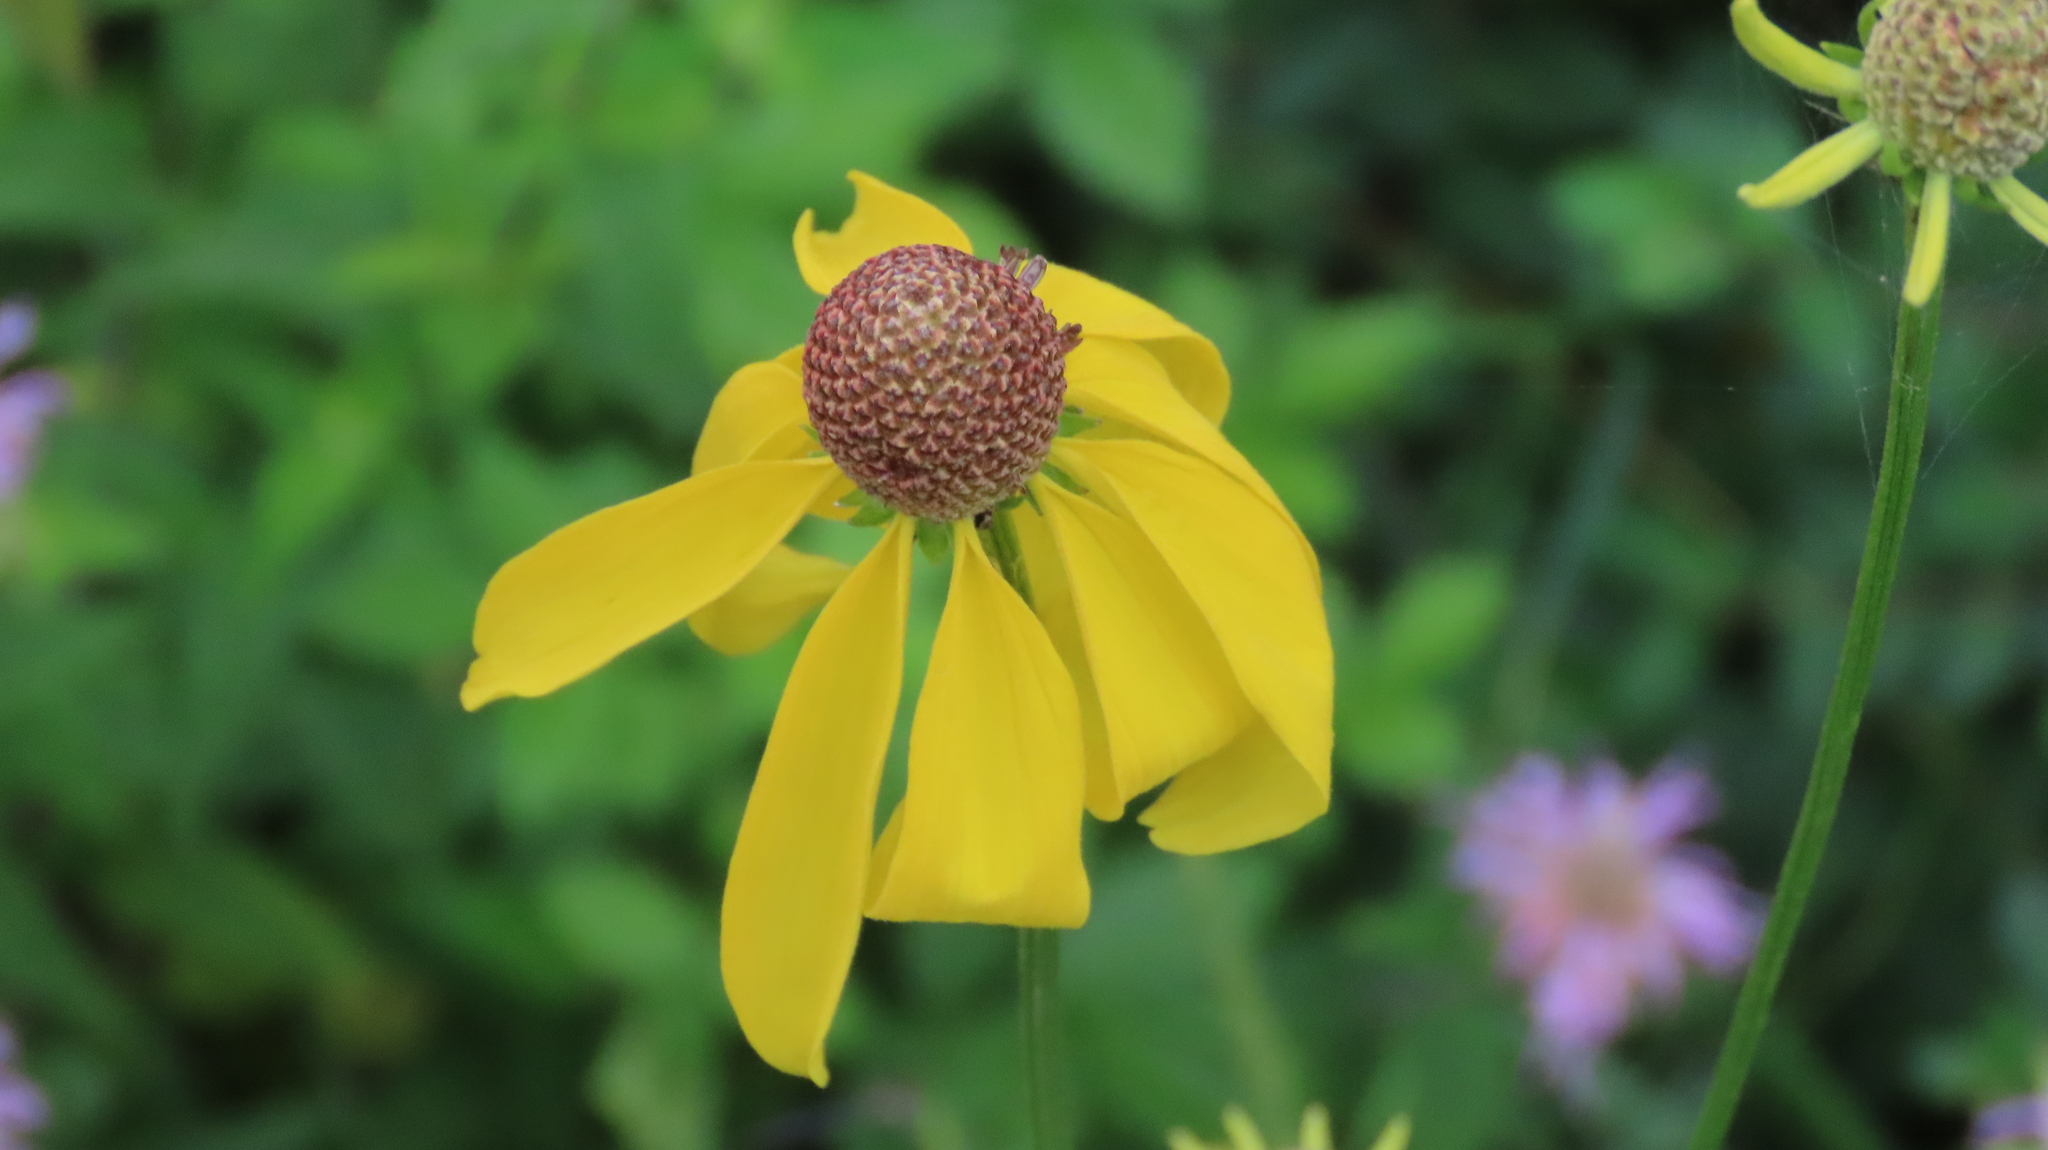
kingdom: Plantae
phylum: Tracheophyta
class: Magnoliopsida
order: Asterales
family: Asteraceae
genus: Ratibida
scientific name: Ratibida pinnata
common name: Drooping prairie-coneflower
